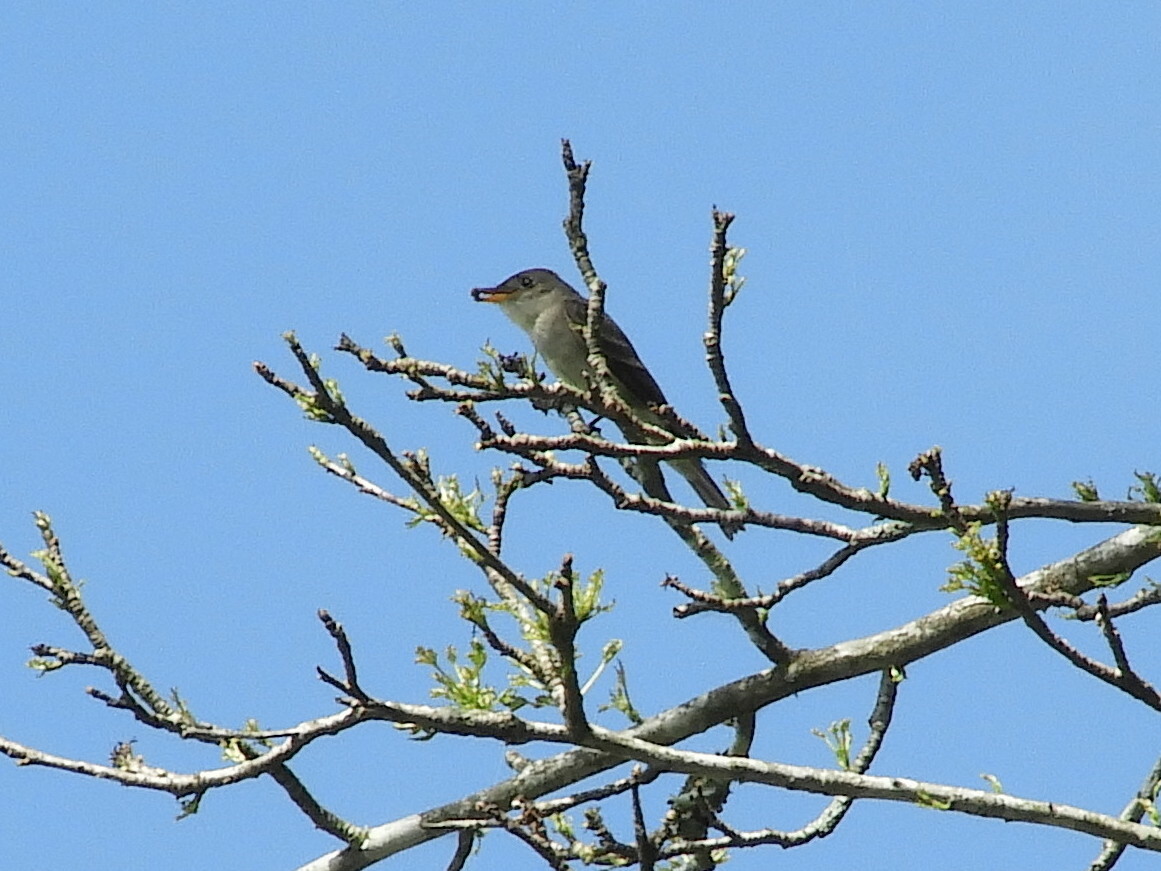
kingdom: Animalia
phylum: Chordata
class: Aves
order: Passeriformes
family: Tyrannidae
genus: Contopus
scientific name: Contopus virens
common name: Eastern wood-pewee
